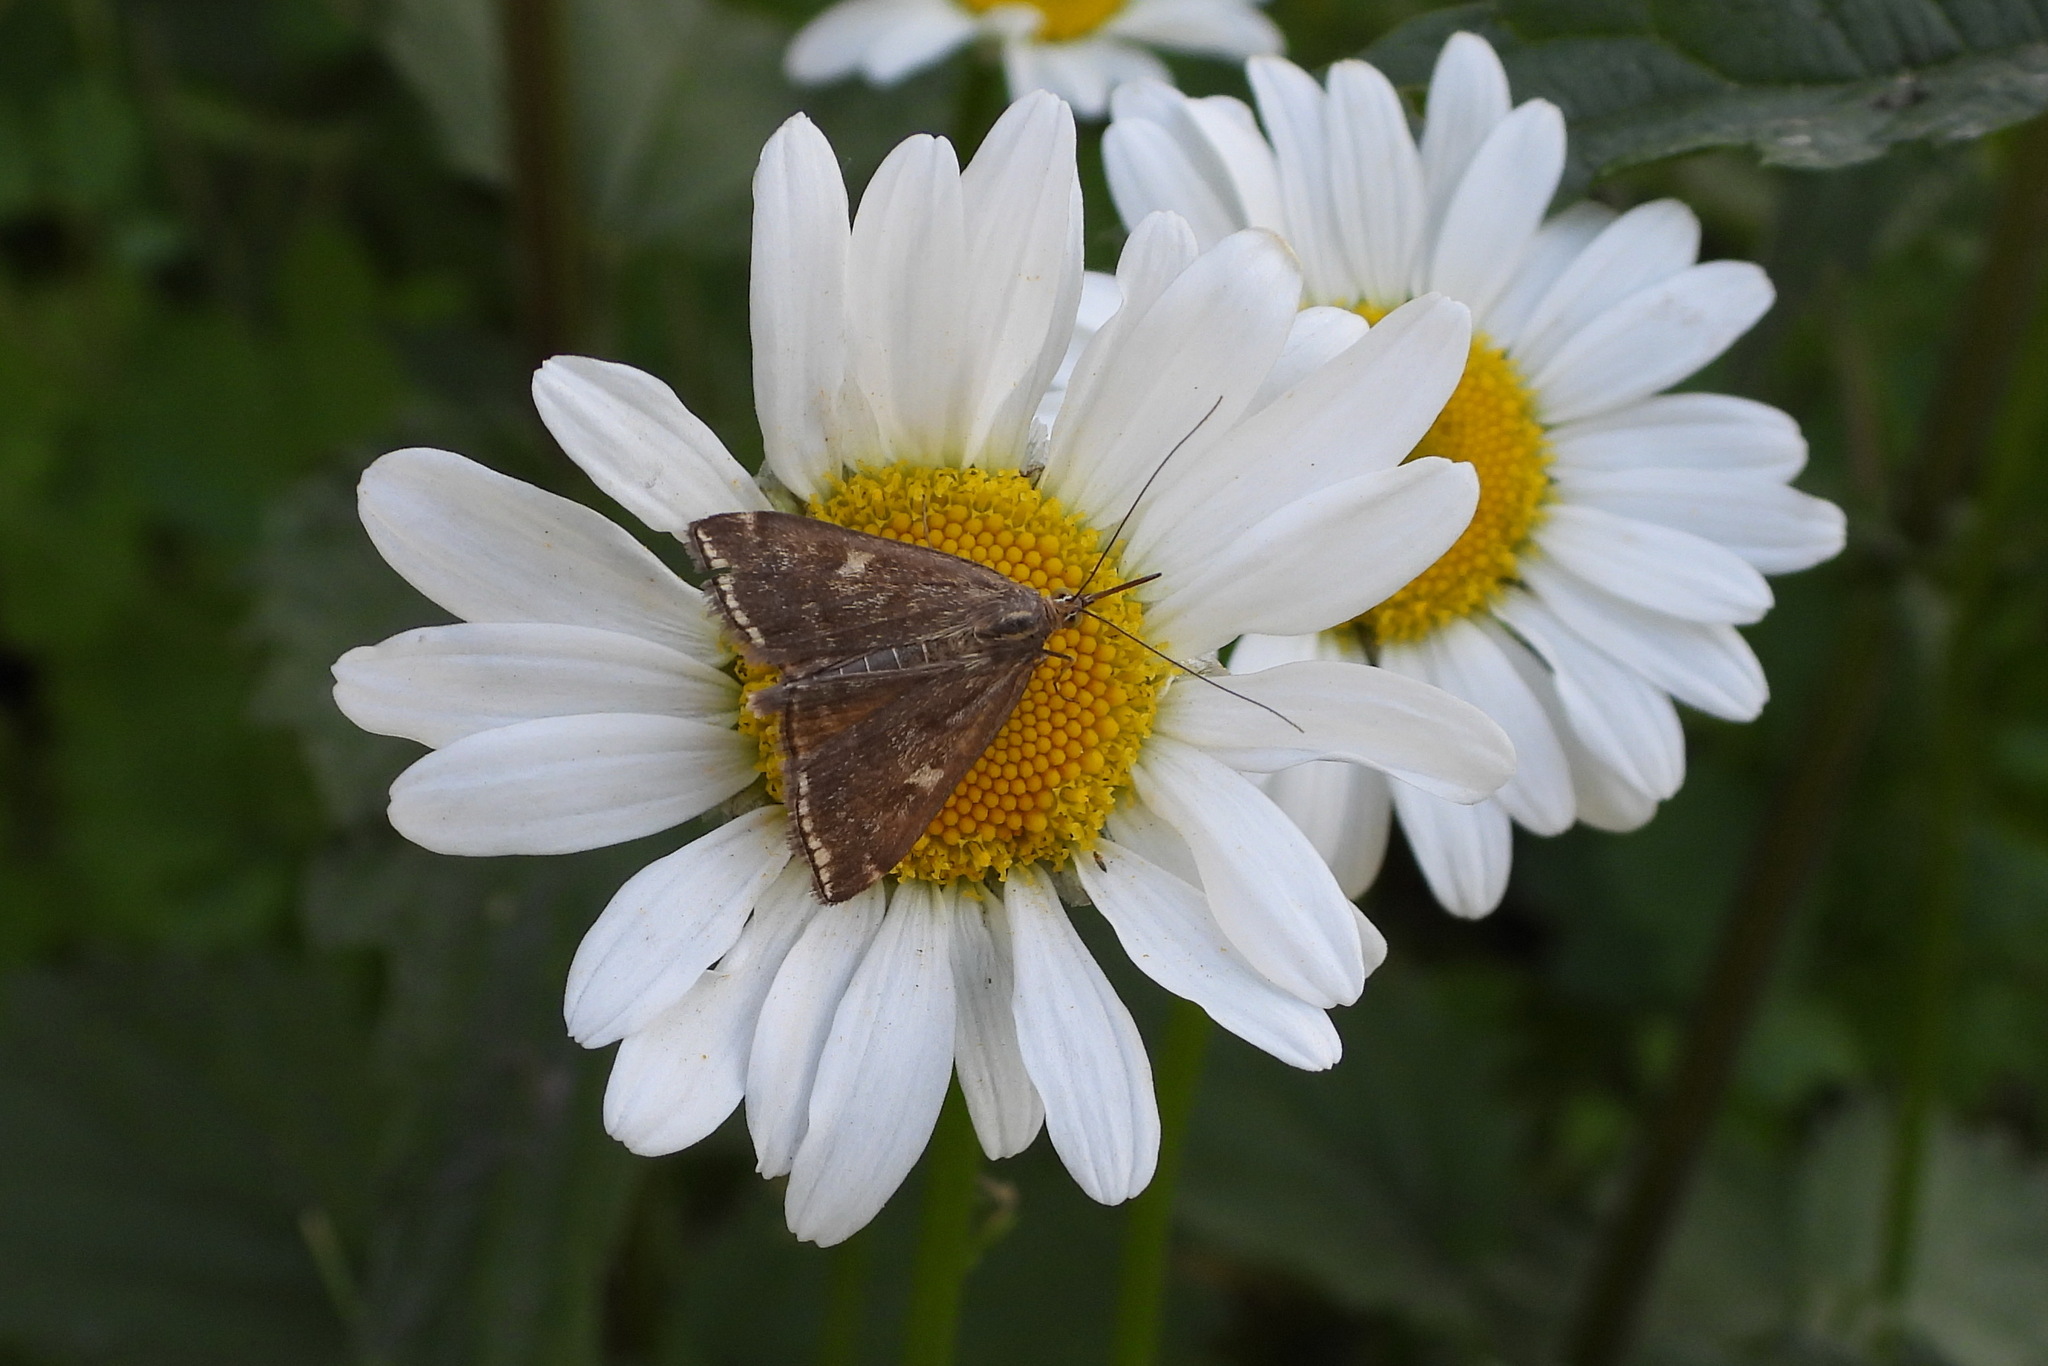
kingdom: Animalia
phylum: Arthropoda
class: Insecta
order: Lepidoptera
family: Crambidae
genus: Loxostege
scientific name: Loxostege sticticalis
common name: Crambid moth
